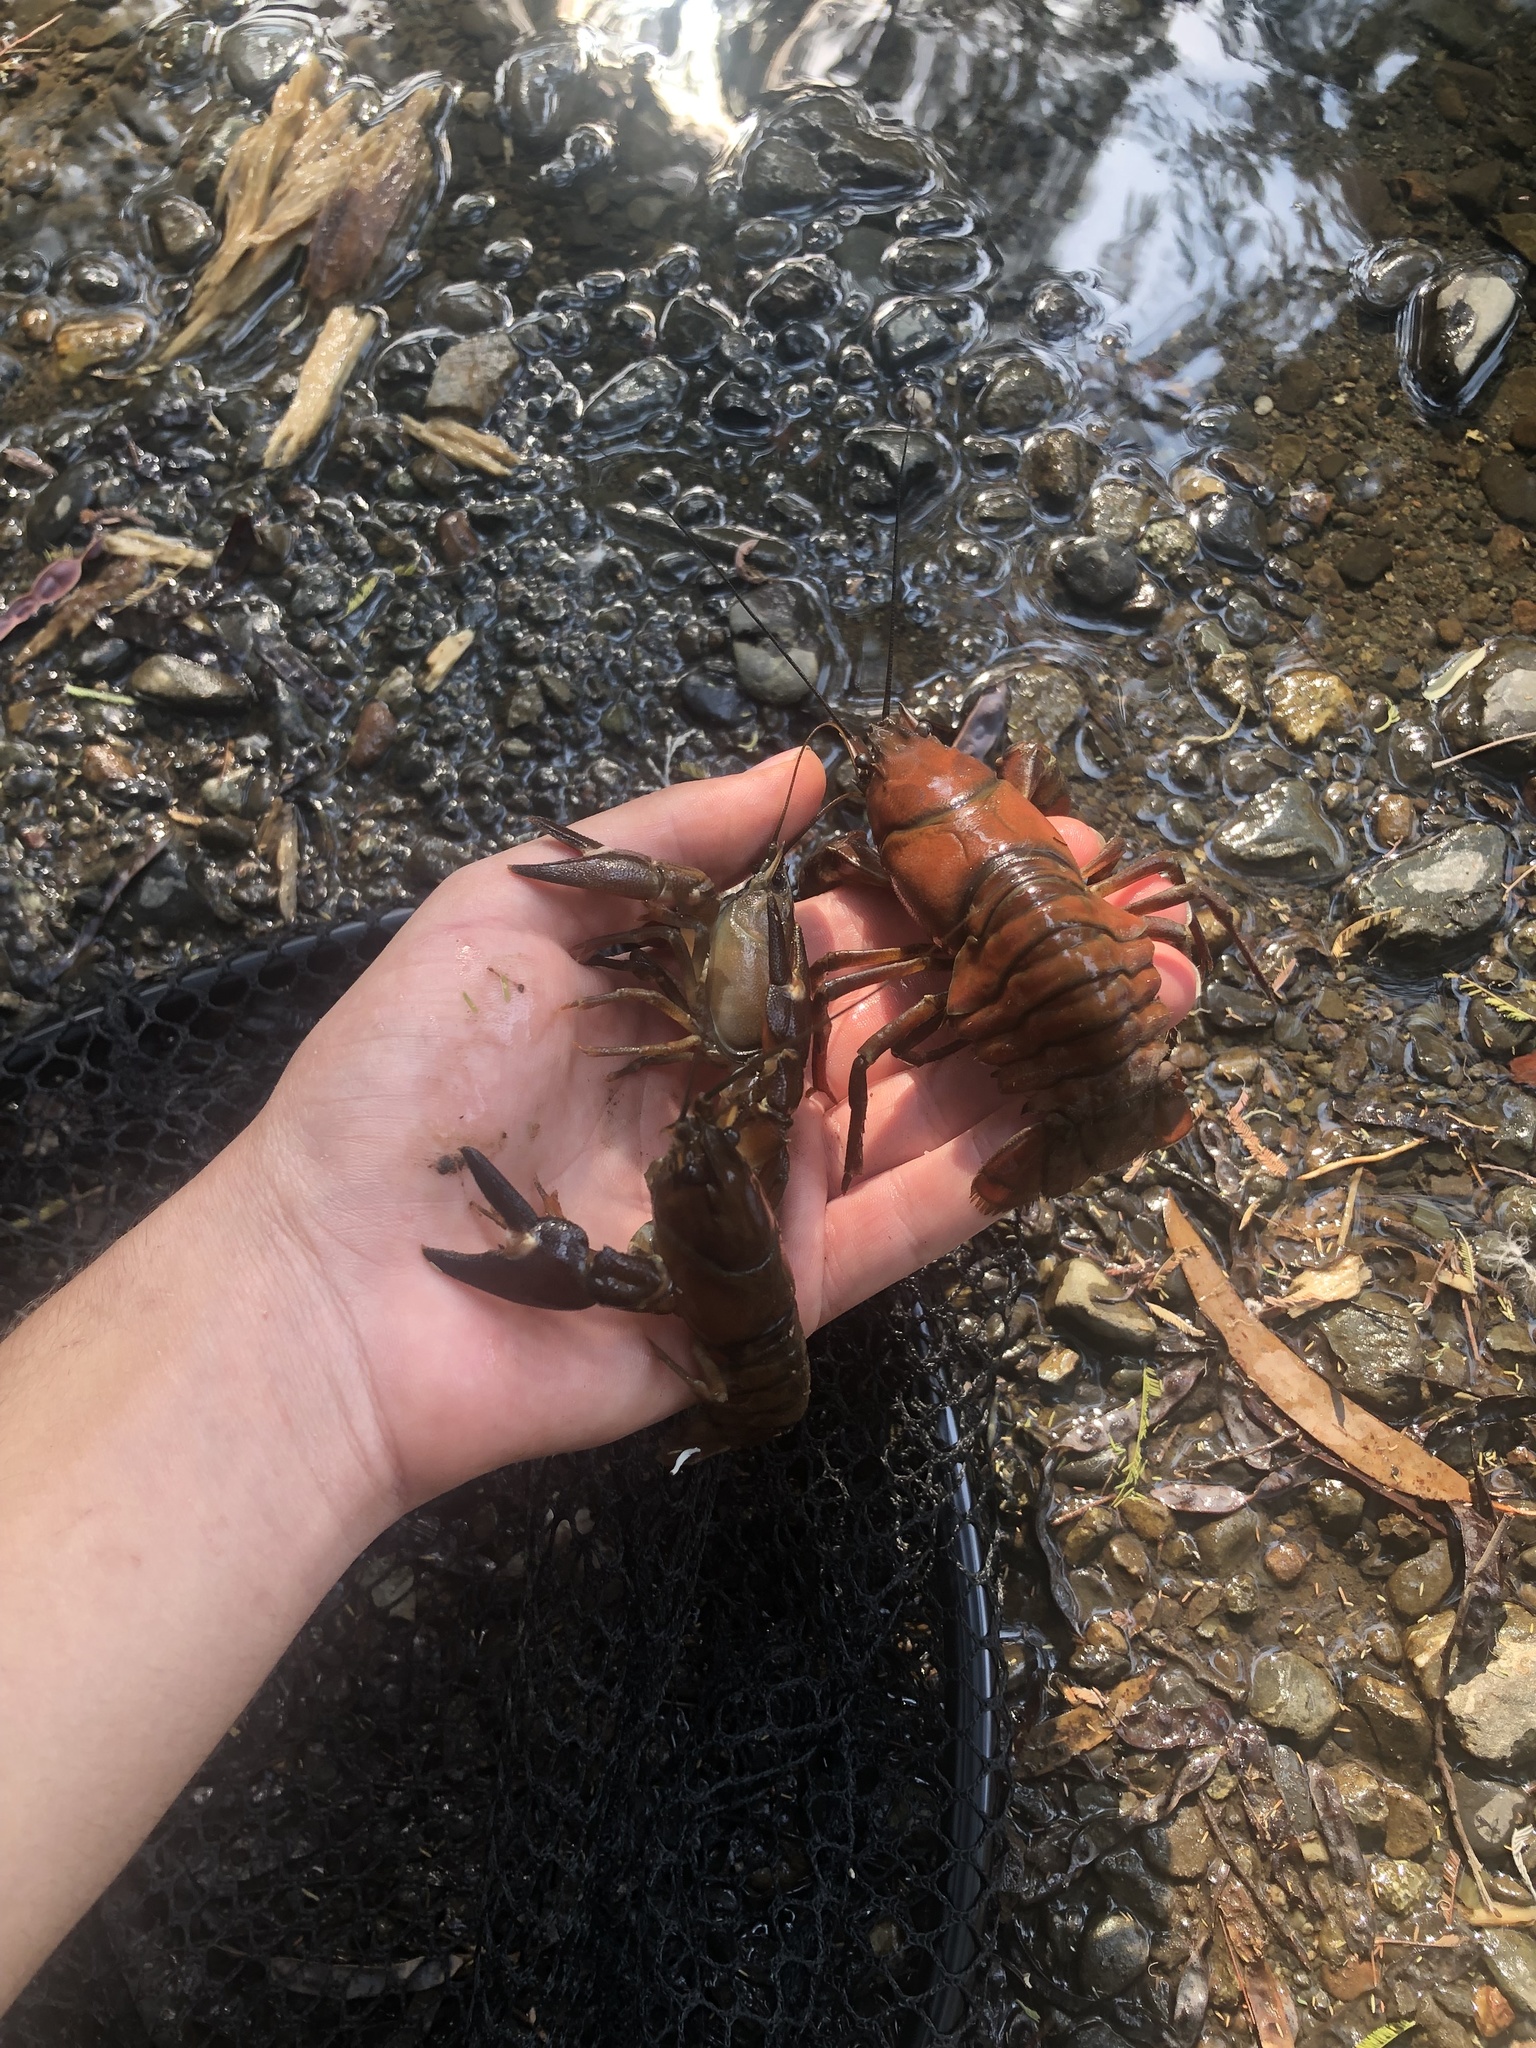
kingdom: Animalia
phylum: Arthropoda
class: Malacostraca
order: Decapoda
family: Astacidae
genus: Pacifastacus
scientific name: Pacifastacus leniusculus
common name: Signal crayfish
